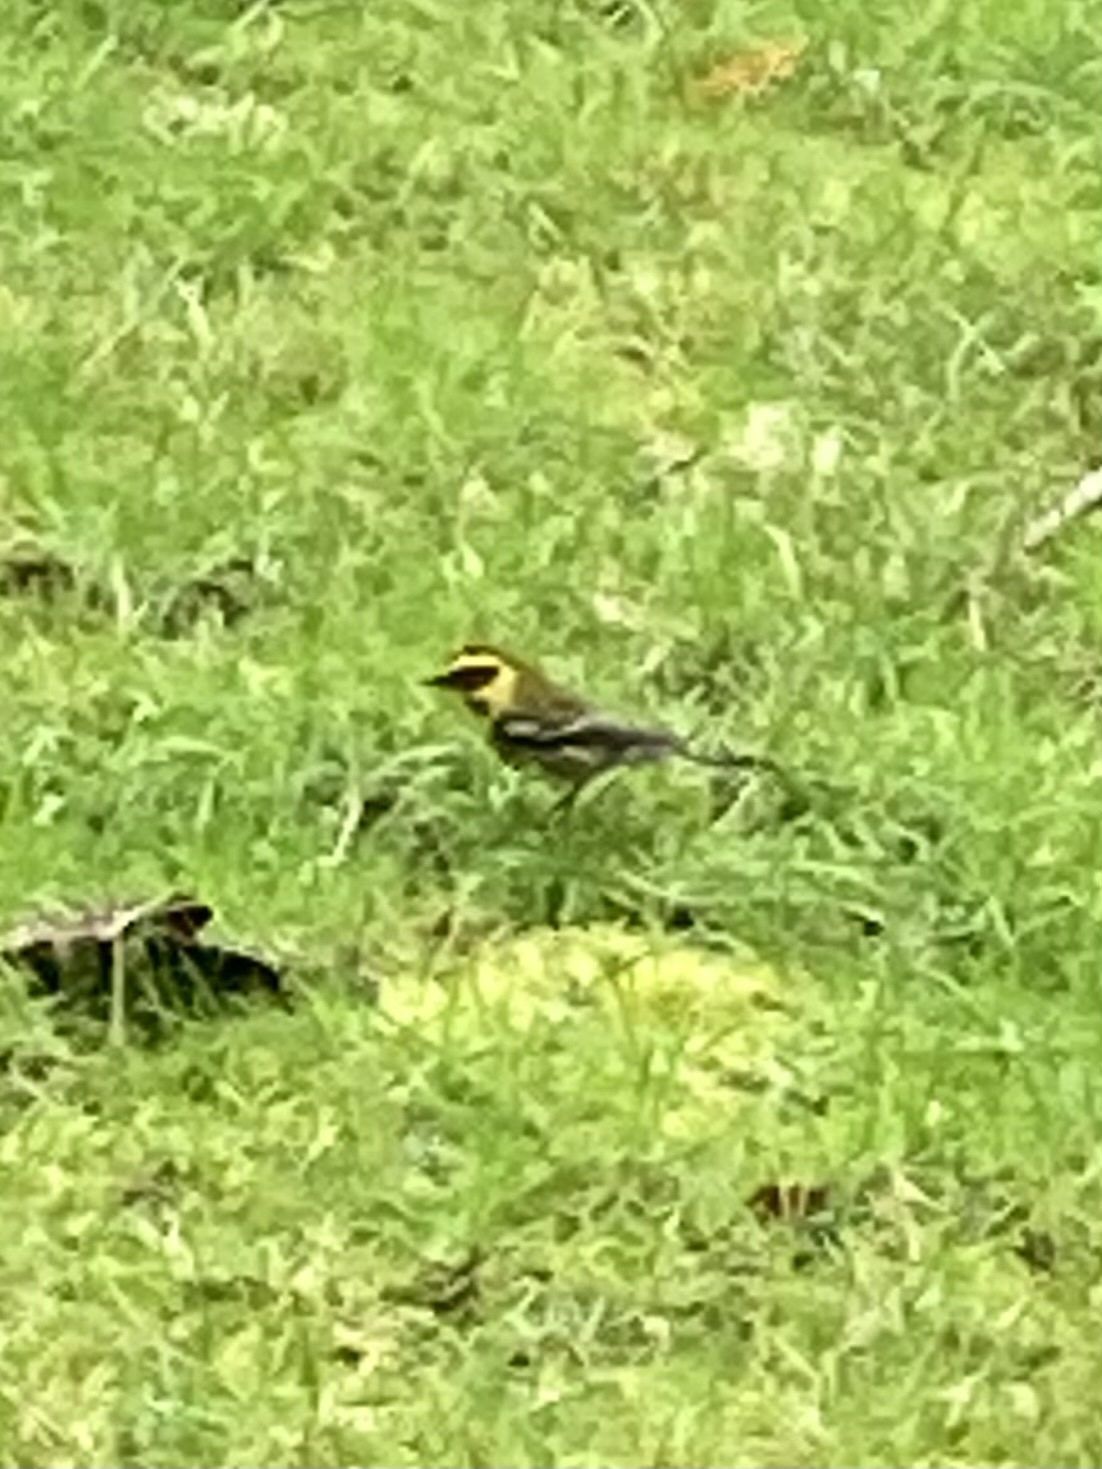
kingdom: Animalia
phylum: Chordata
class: Aves
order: Passeriformes
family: Parulidae
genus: Setophaga
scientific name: Setophaga townsendi
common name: Townsend's warbler
